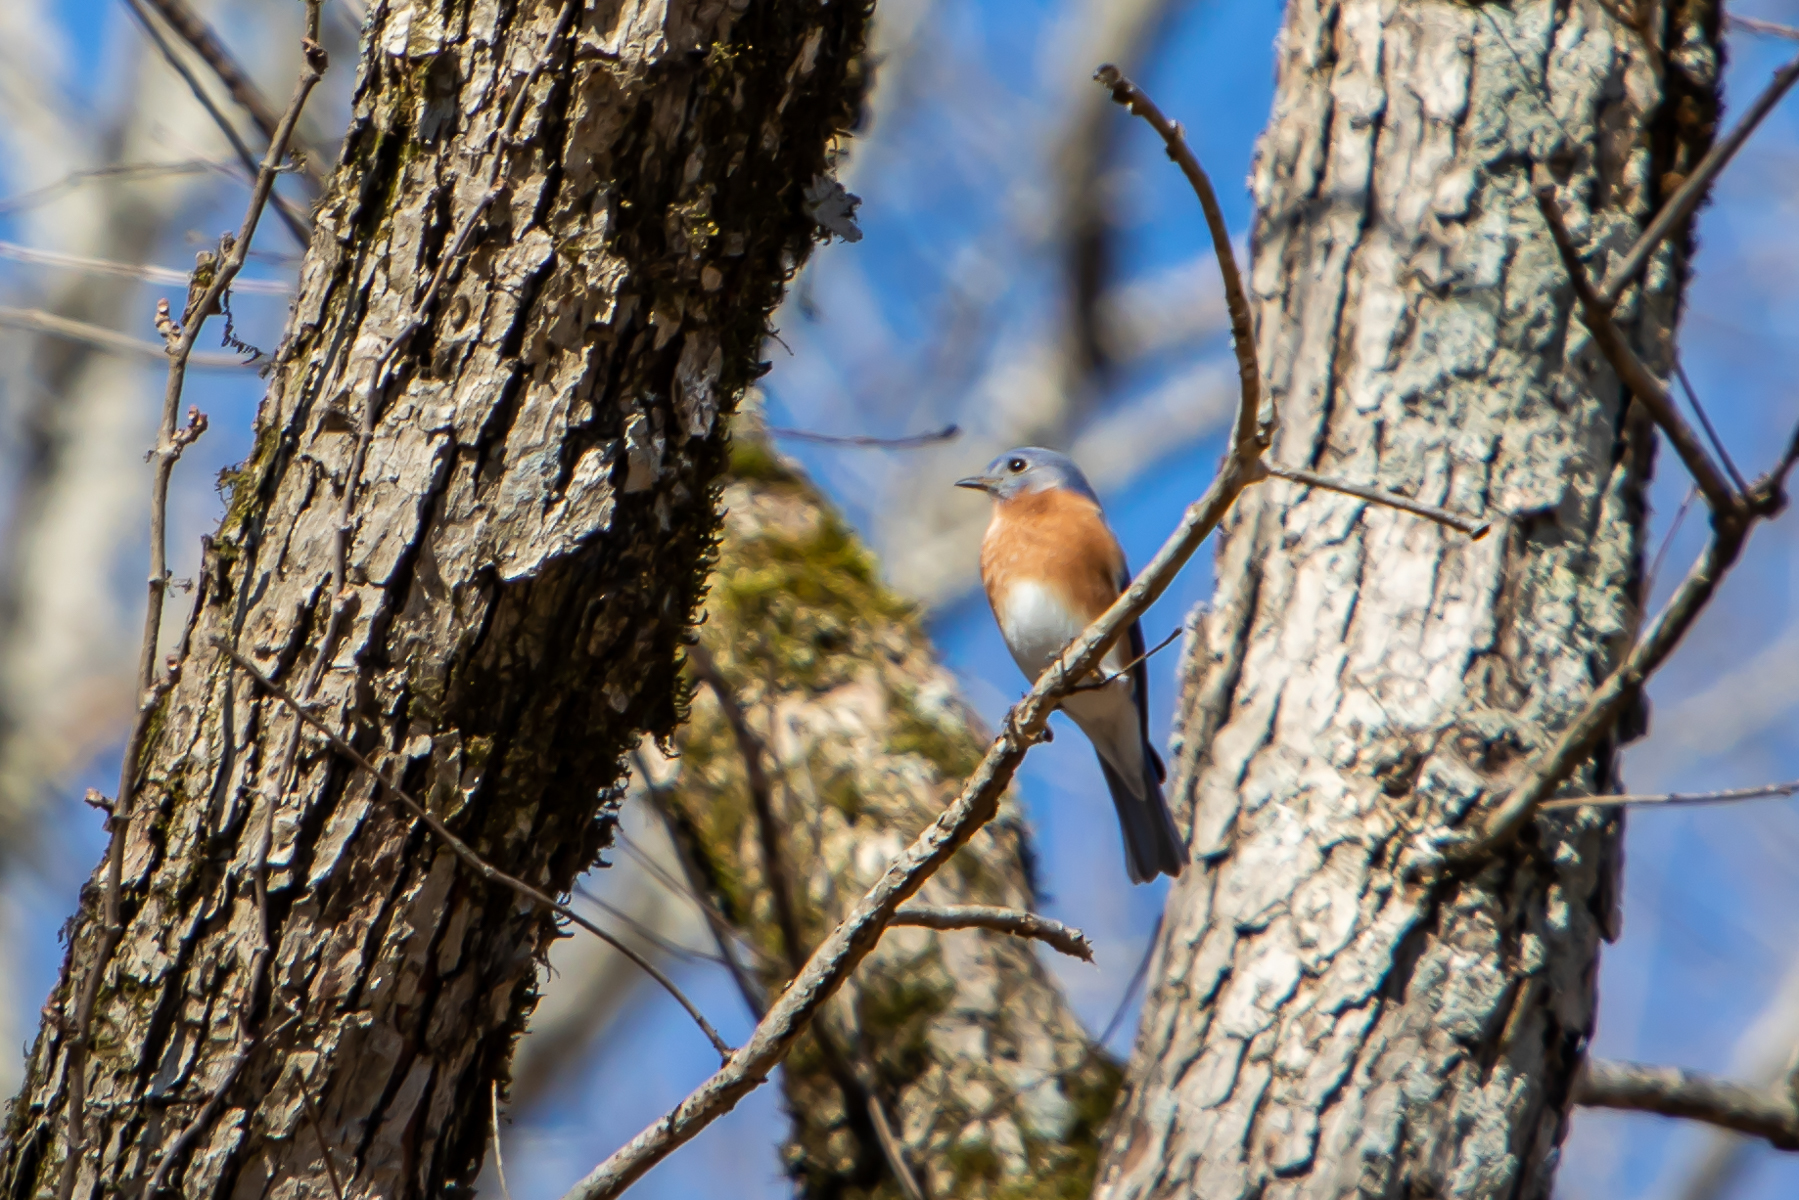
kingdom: Animalia
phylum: Chordata
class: Aves
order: Passeriformes
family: Turdidae
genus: Sialia
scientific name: Sialia sialis
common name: Eastern bluebird
